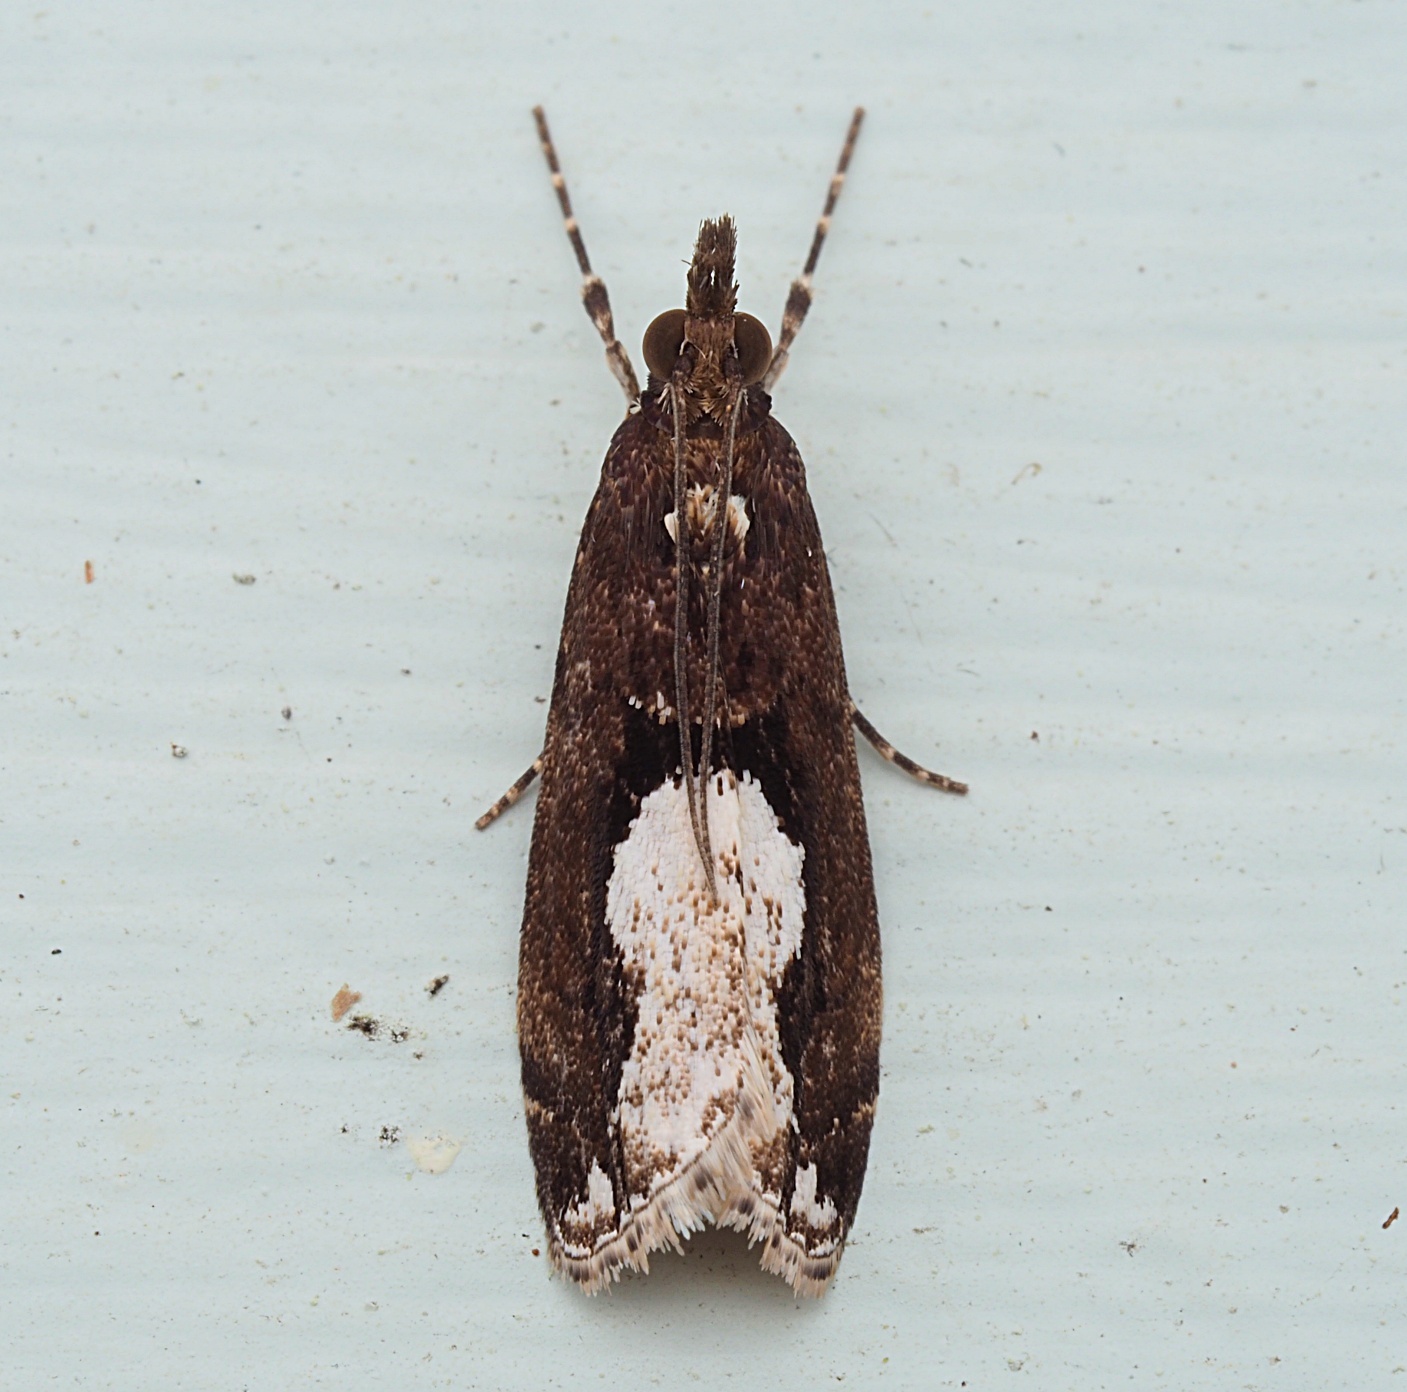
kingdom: Animalia
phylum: Arthropoda
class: Insecta
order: Lepidoptera
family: Crambidae
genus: Eudonia
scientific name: Eudonia hemiplaca
